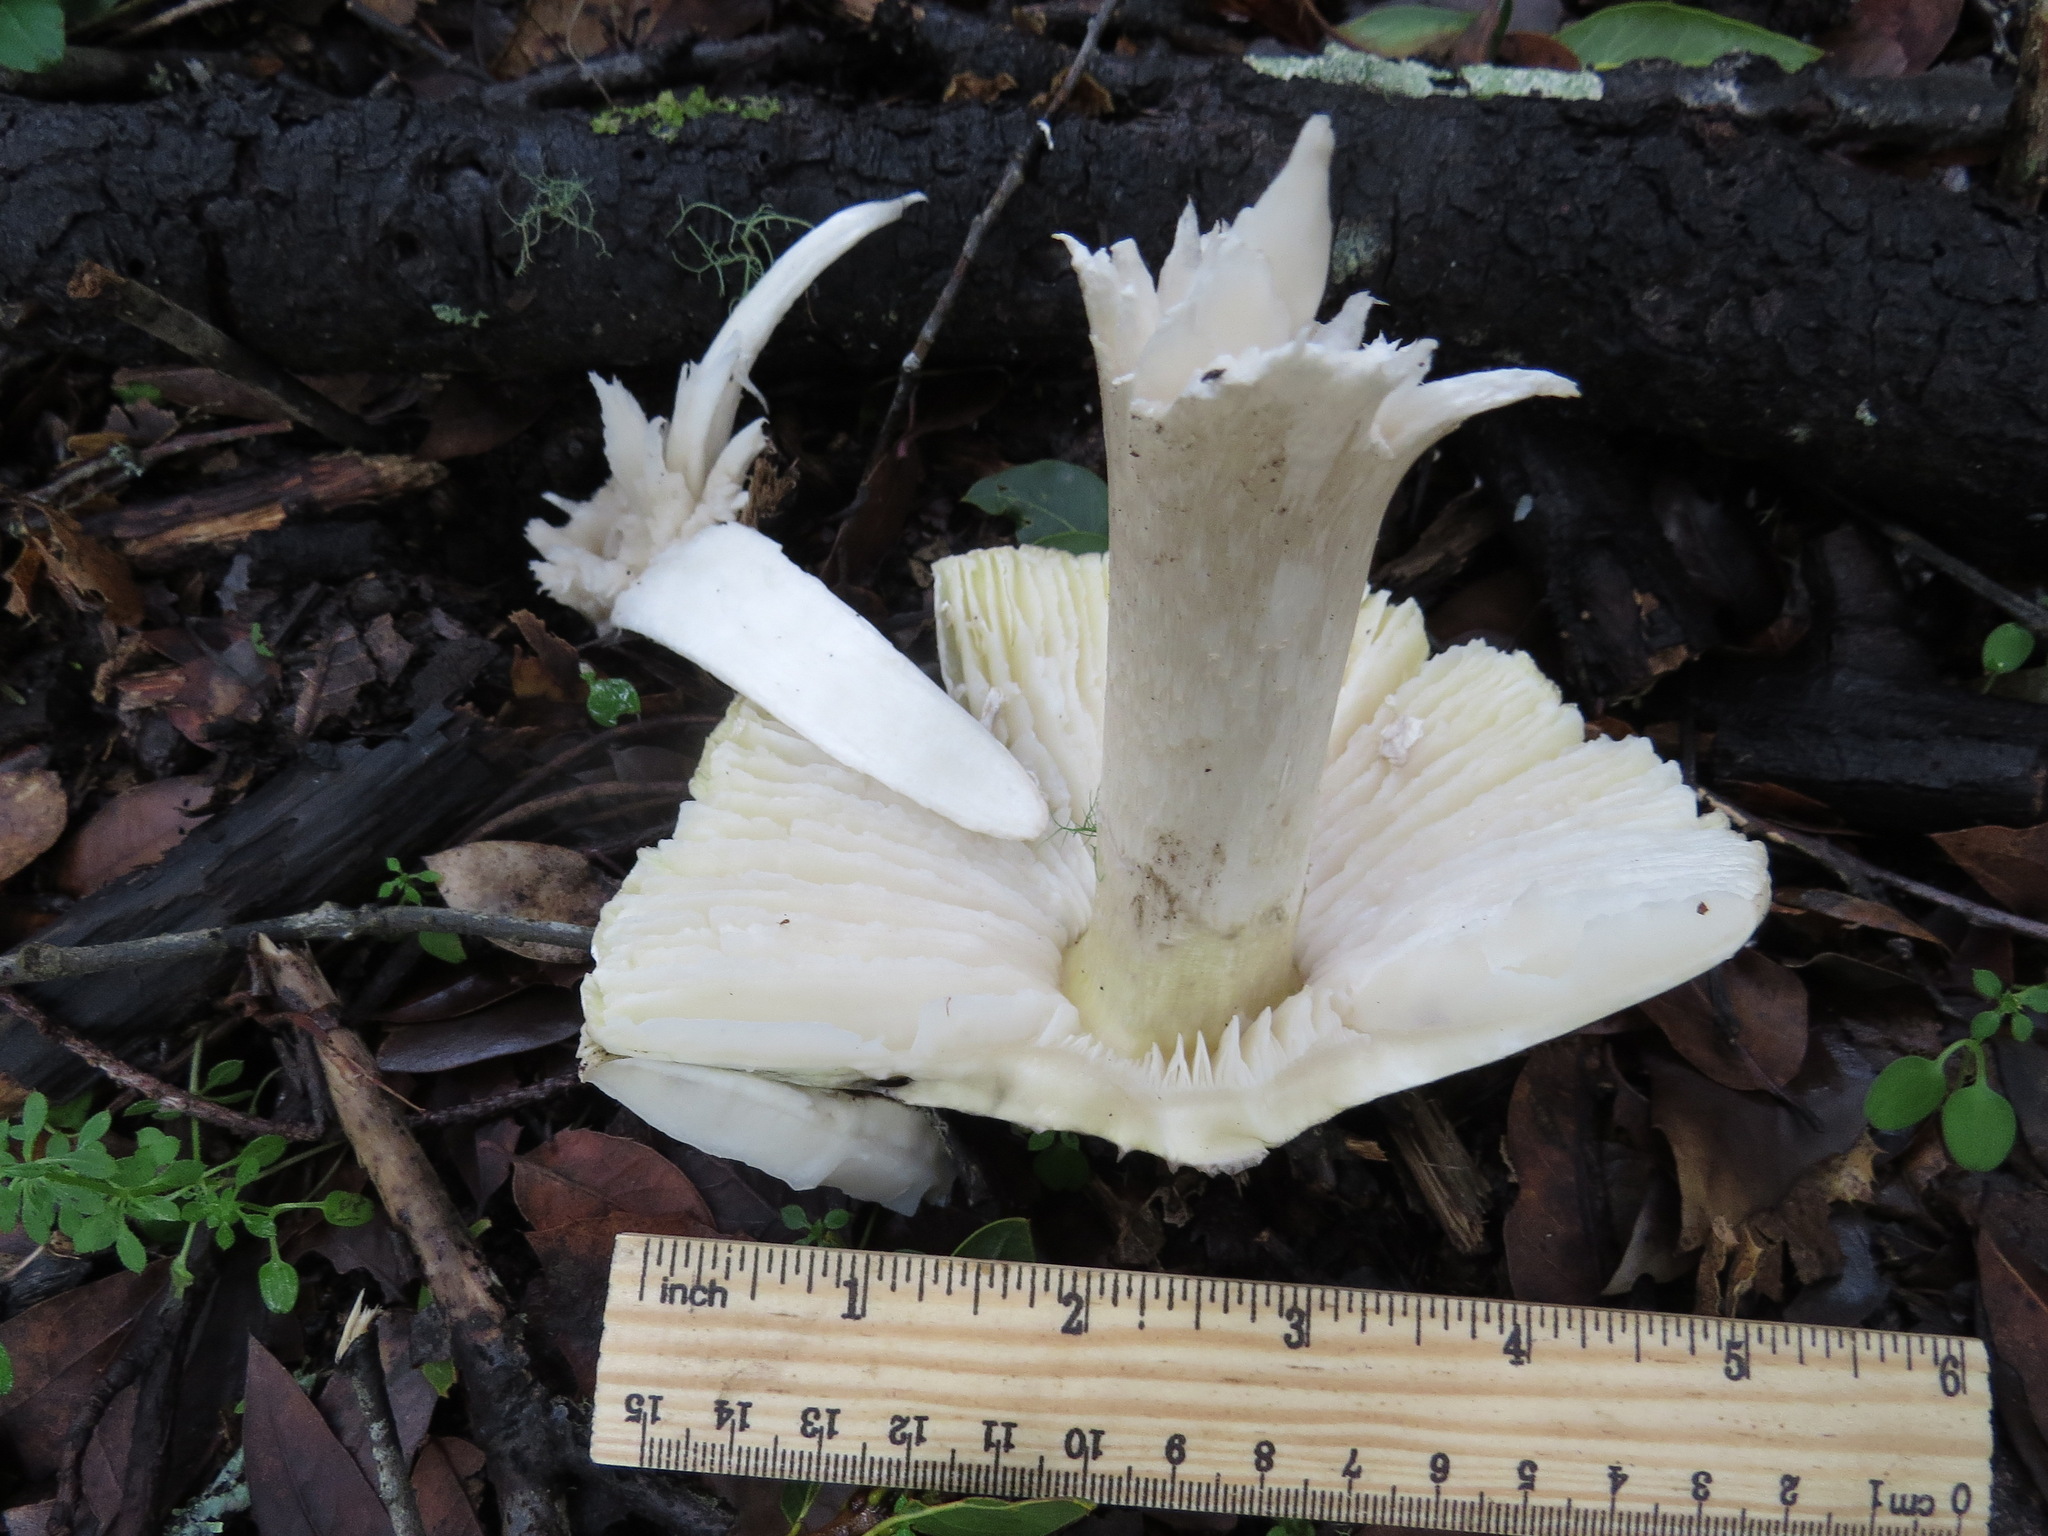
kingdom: Fungi
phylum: Basidiomycota
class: Agaricomycetes
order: Agaricales
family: Amanitaceae
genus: Amanita
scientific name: Amanita phalloides
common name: Death cap
